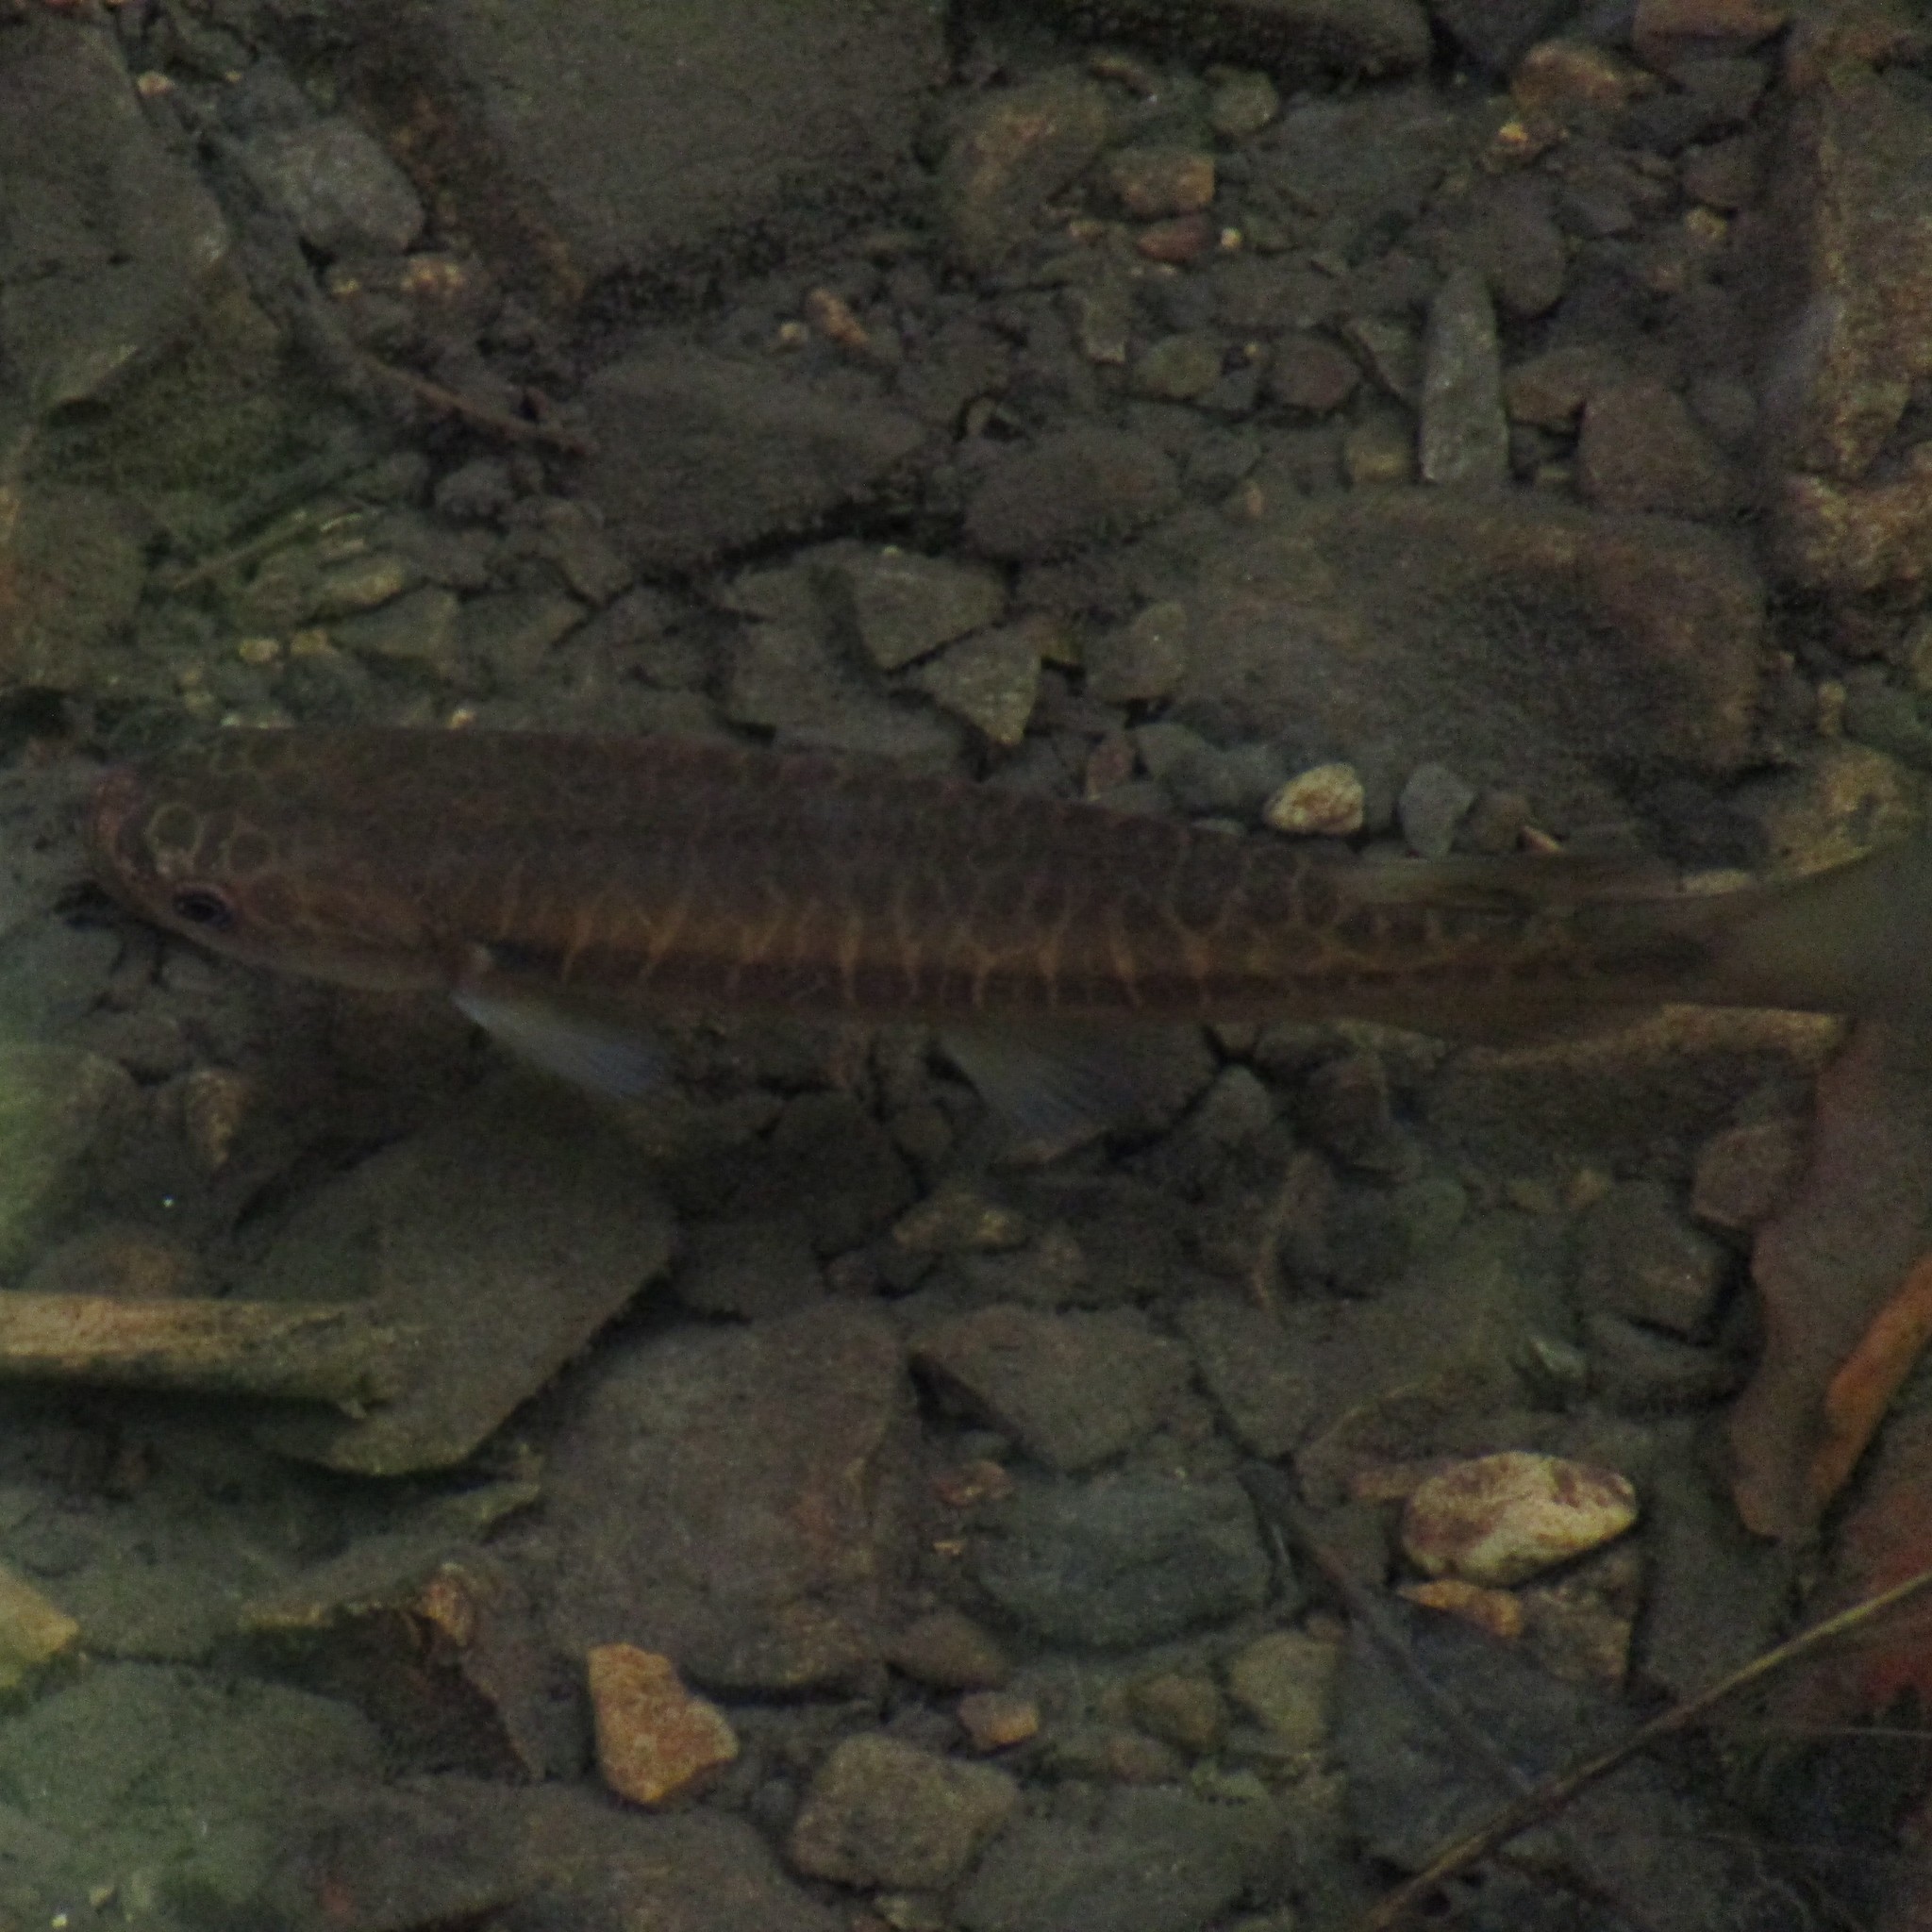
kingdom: Animalia
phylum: Chordata
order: Osmeriformes
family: Galaxiidae
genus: Galaxias
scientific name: Galaxias fasciatus
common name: Banded kokopu
